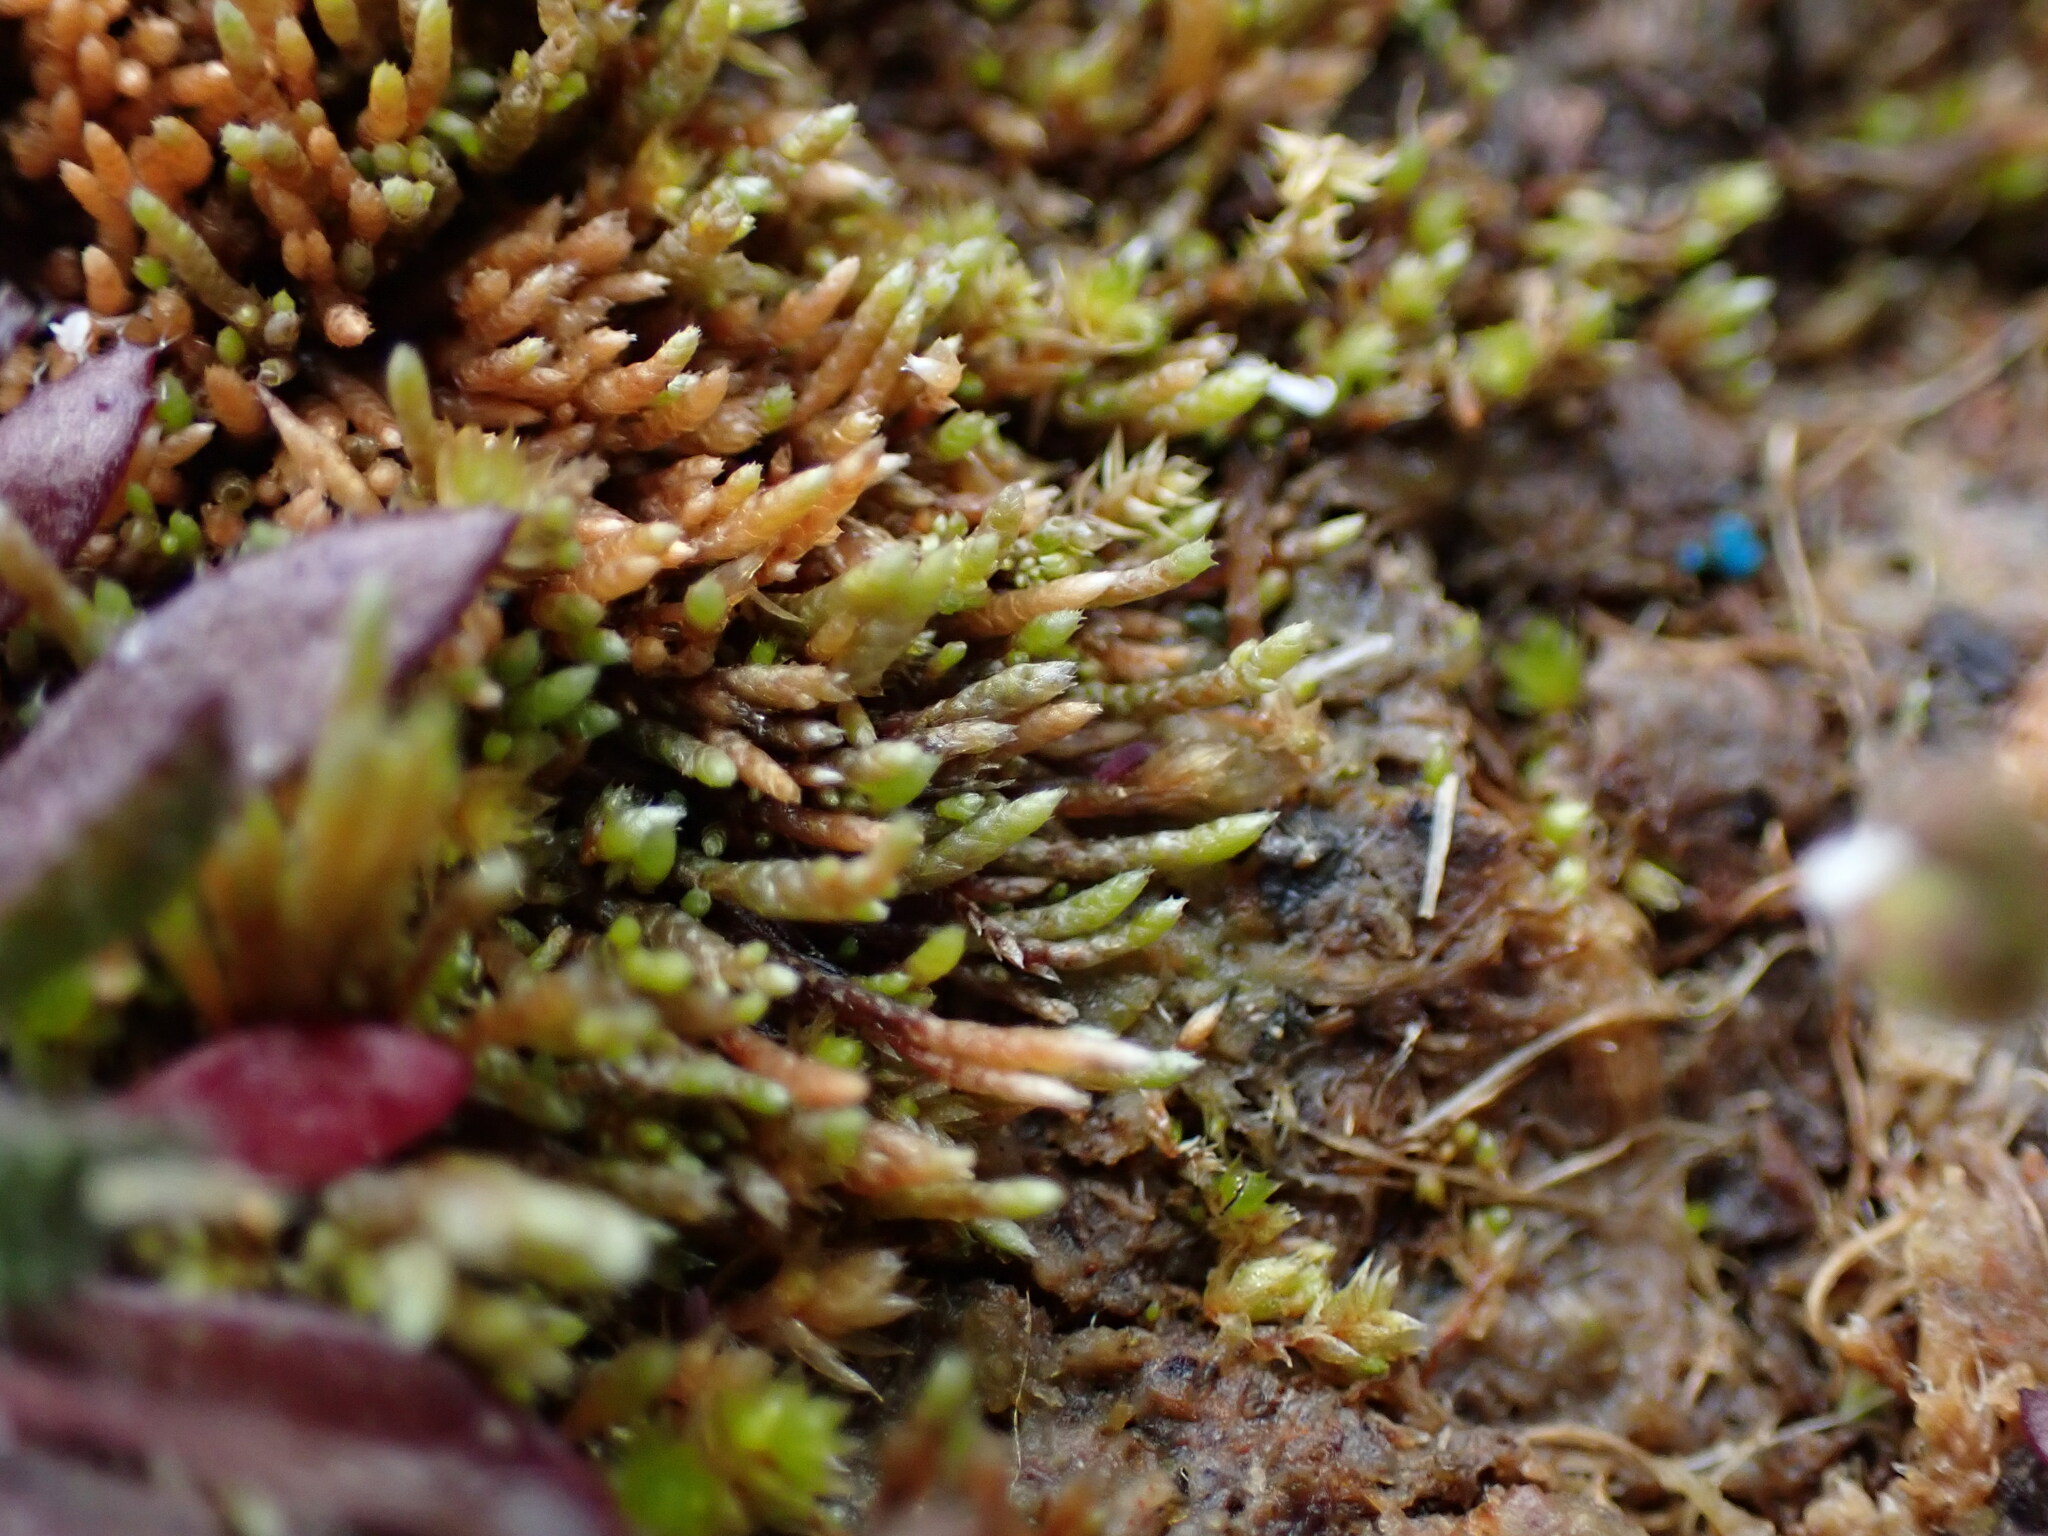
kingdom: Plantae
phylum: Bryophyta
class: Bryopsida
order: Bryales
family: Bryaceae
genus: Bryum
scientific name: Bryum argenteum
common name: Silver-moss
